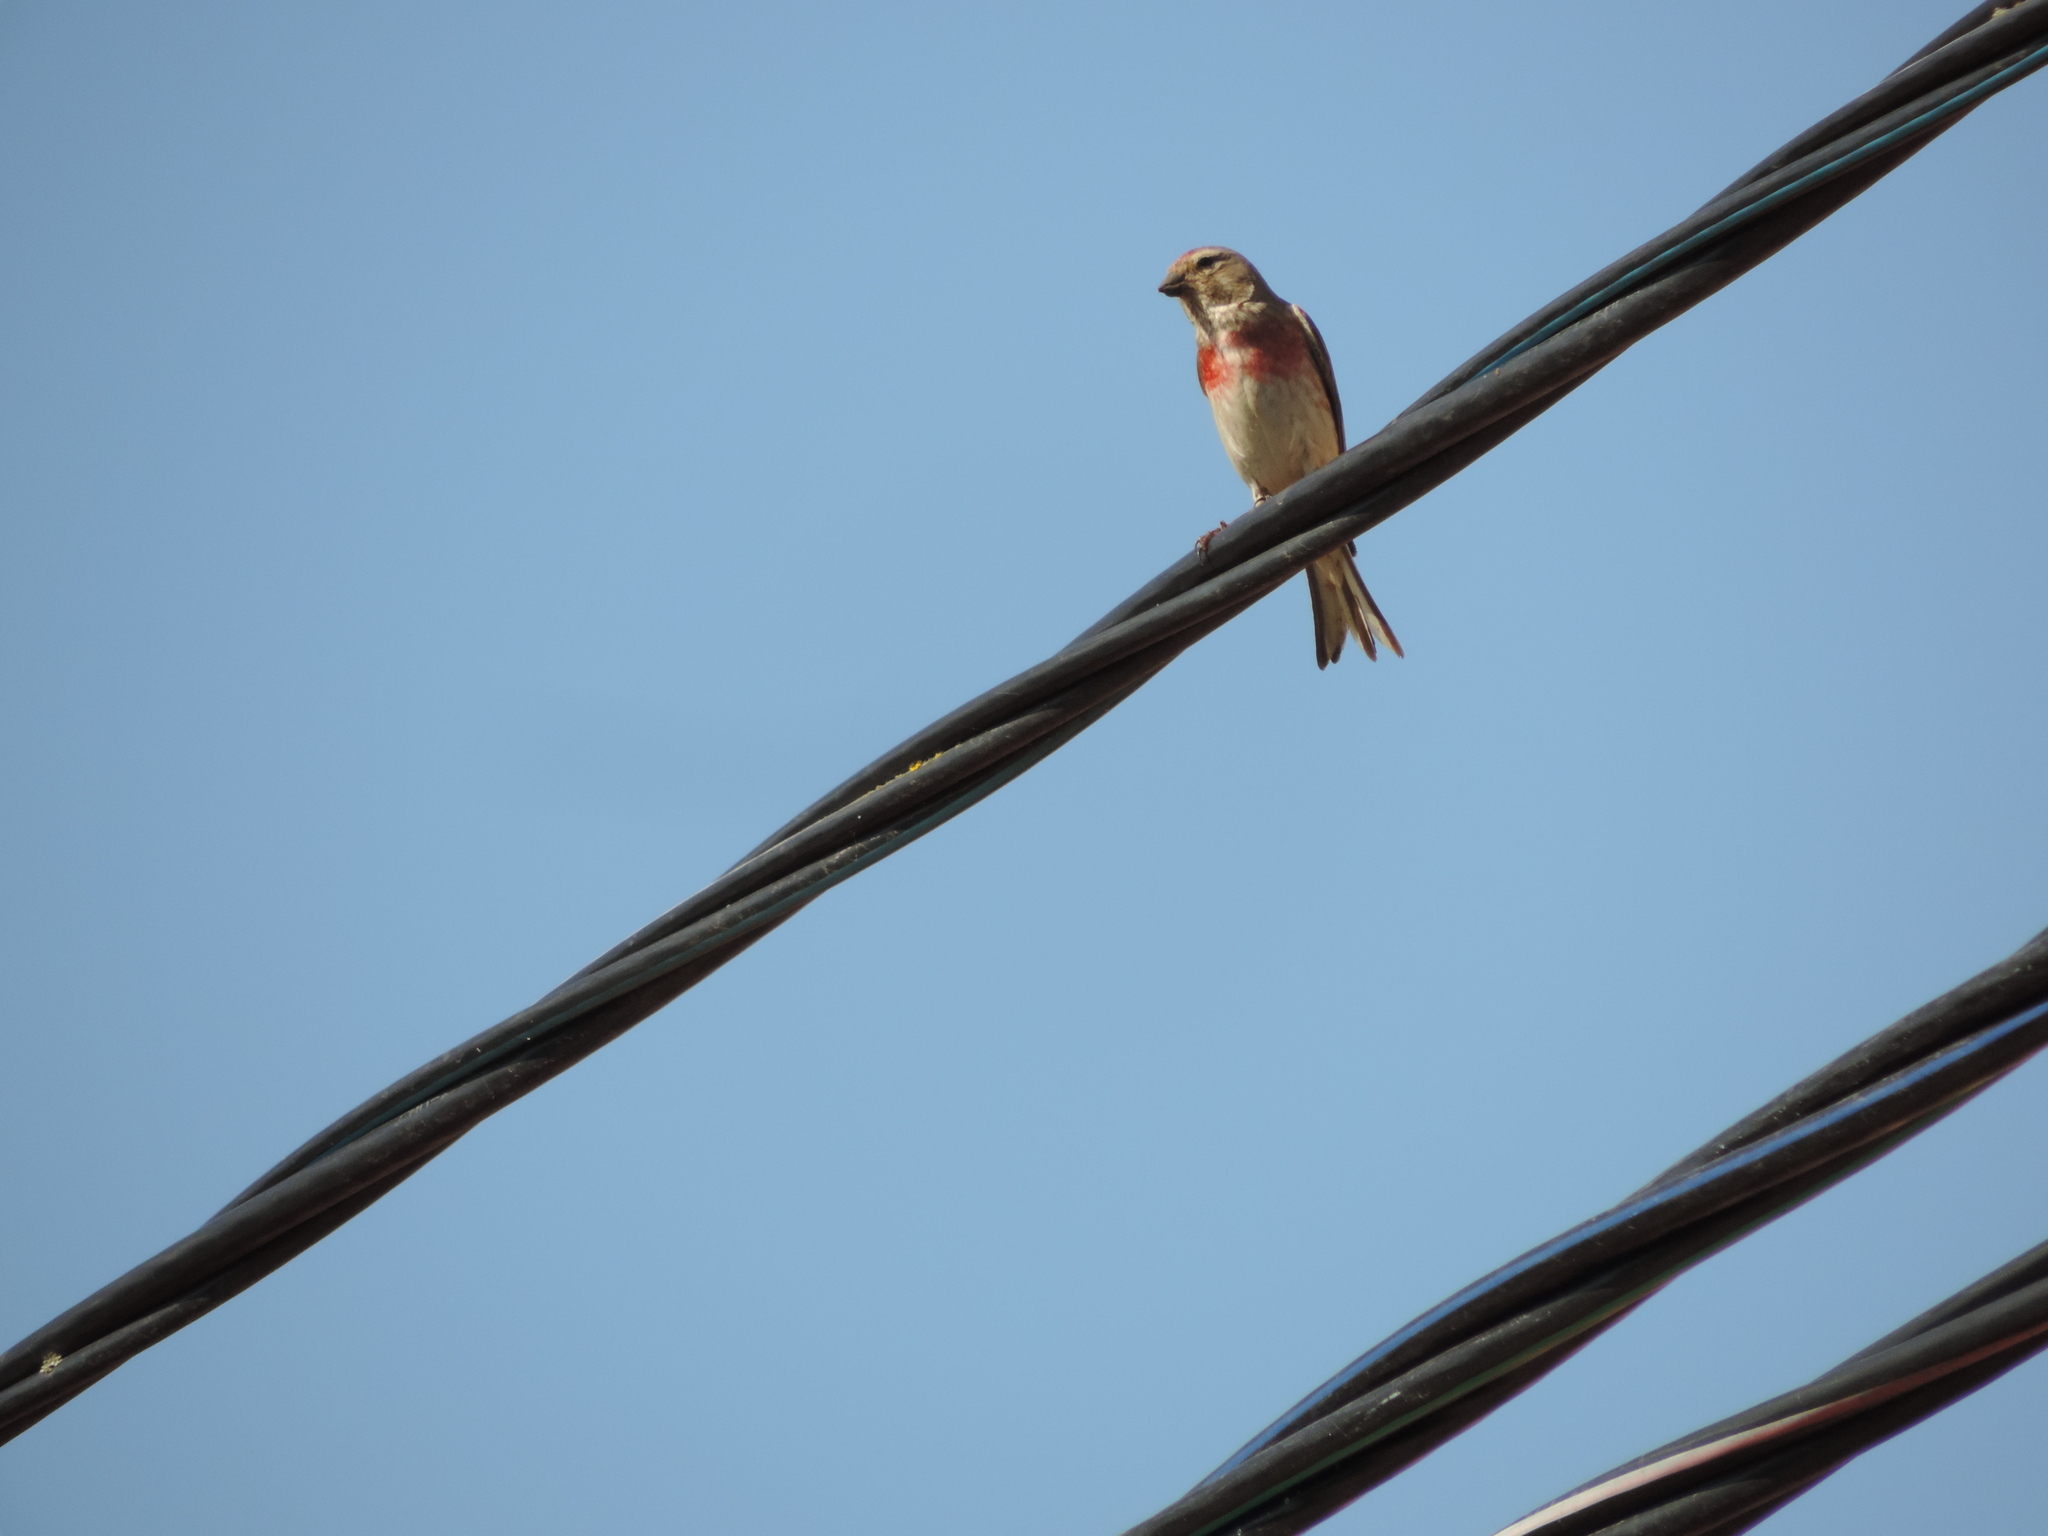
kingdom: Animalia
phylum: Chordata
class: Aves
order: Passeriformes
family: Fringillidae
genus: Linaria
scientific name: Linaria cannabina
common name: Common linnet
